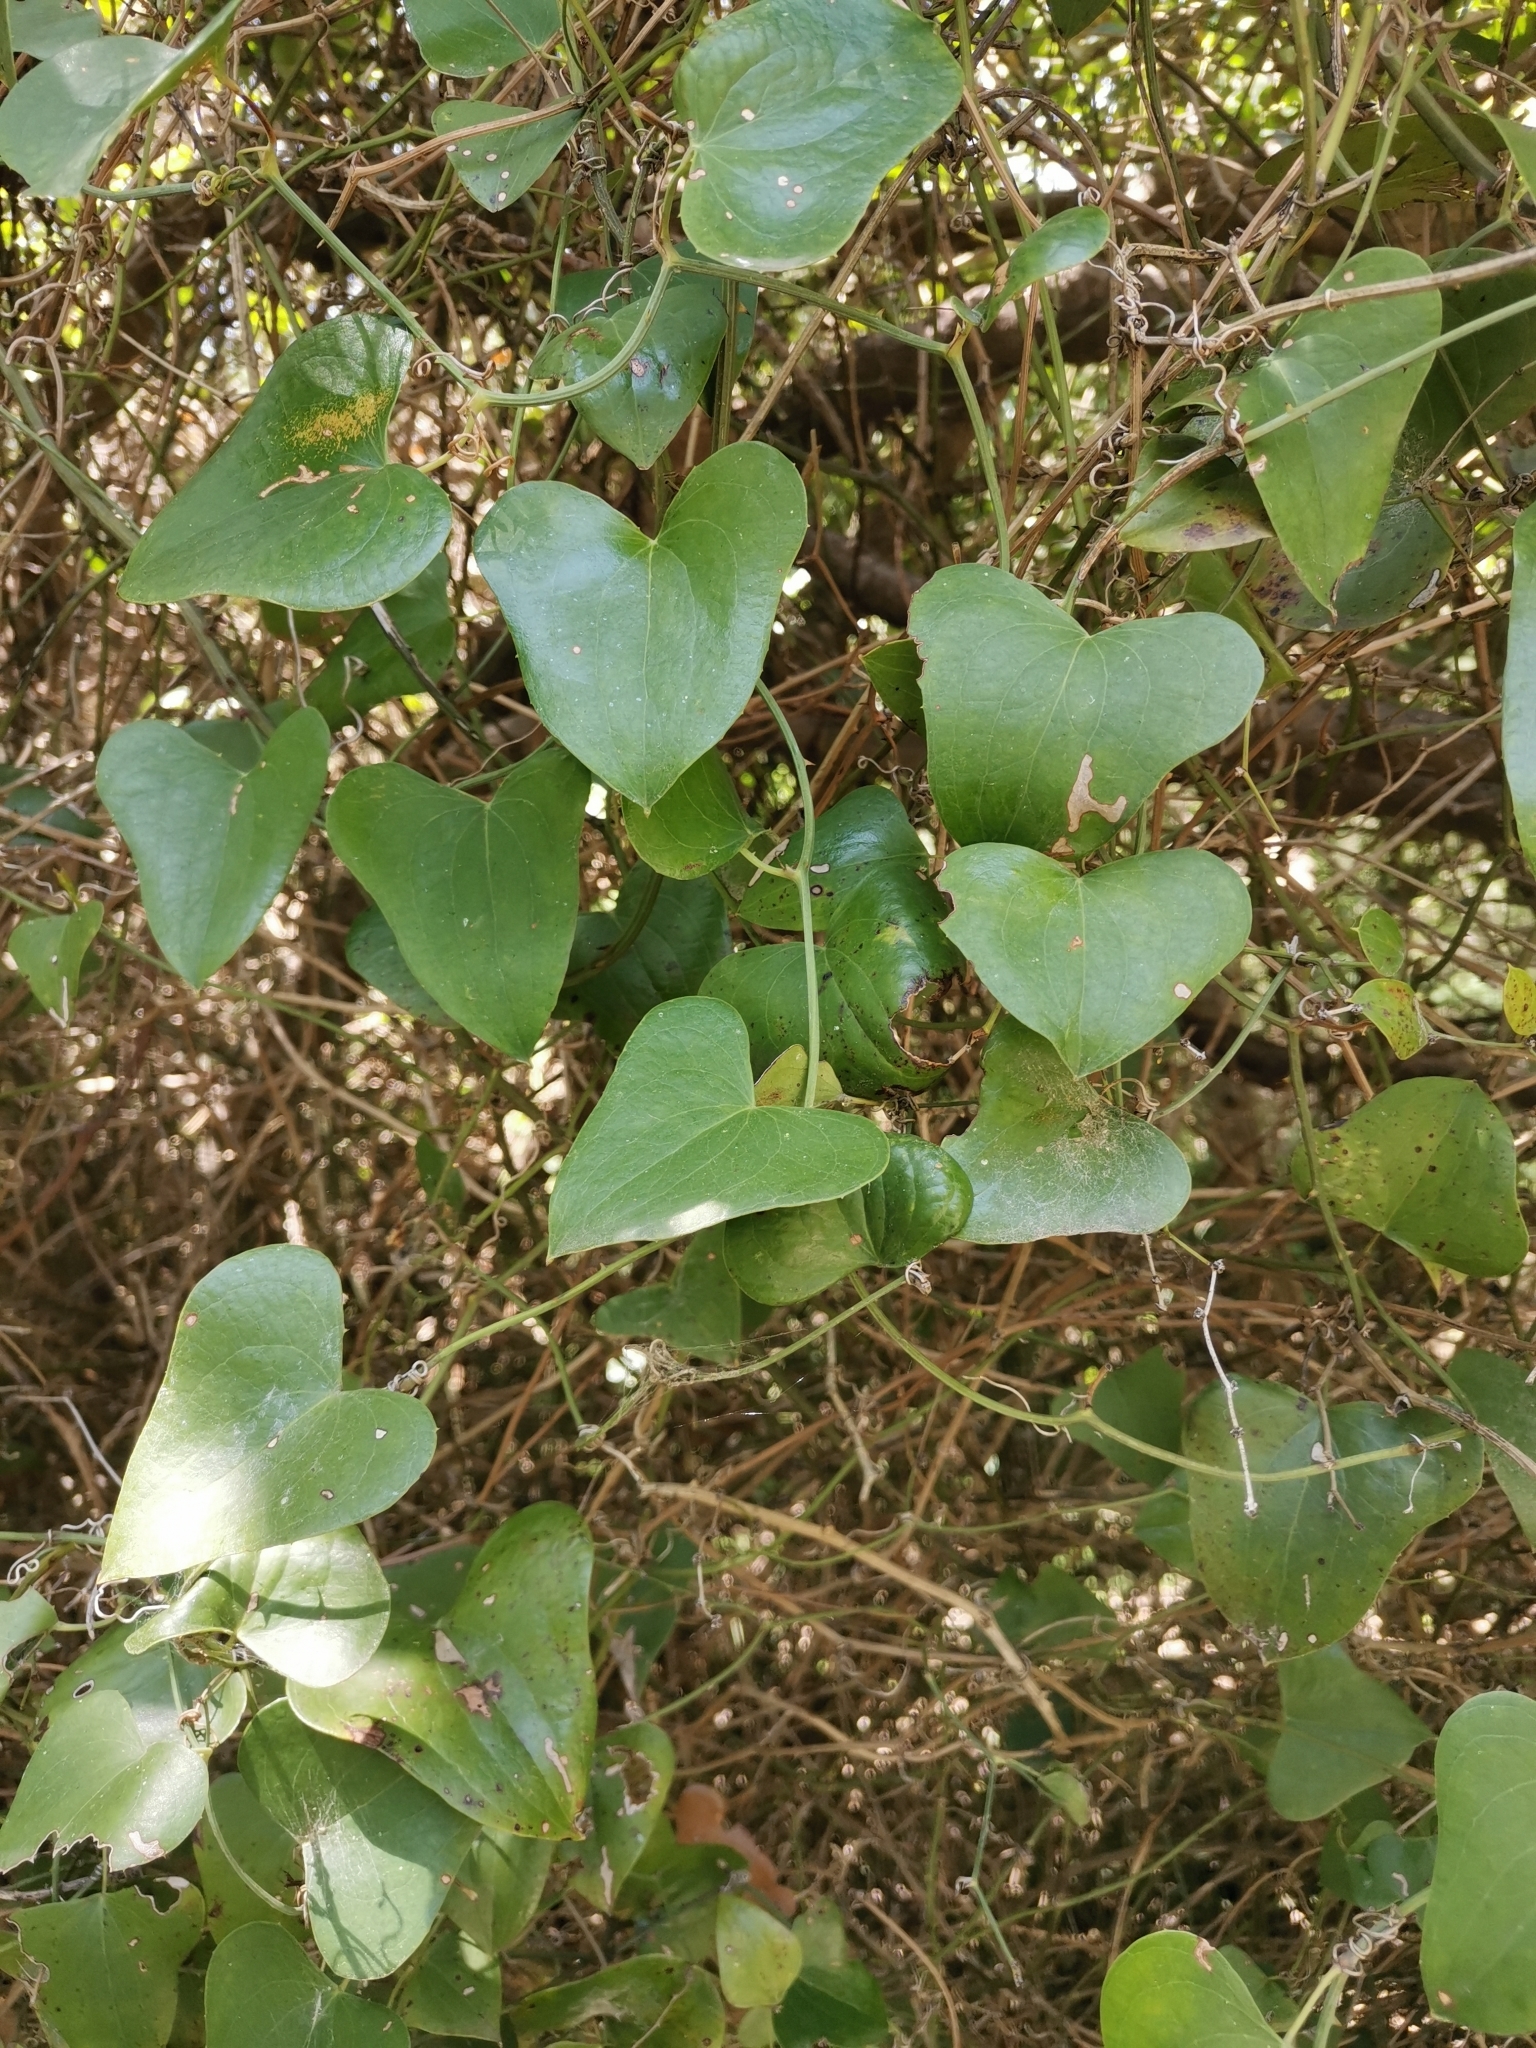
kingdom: Plantae
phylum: Tracheophyta
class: Liliopsida
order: Liliales
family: Smilacaceae
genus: Smilax
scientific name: Smilax aspera
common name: Common smilax
